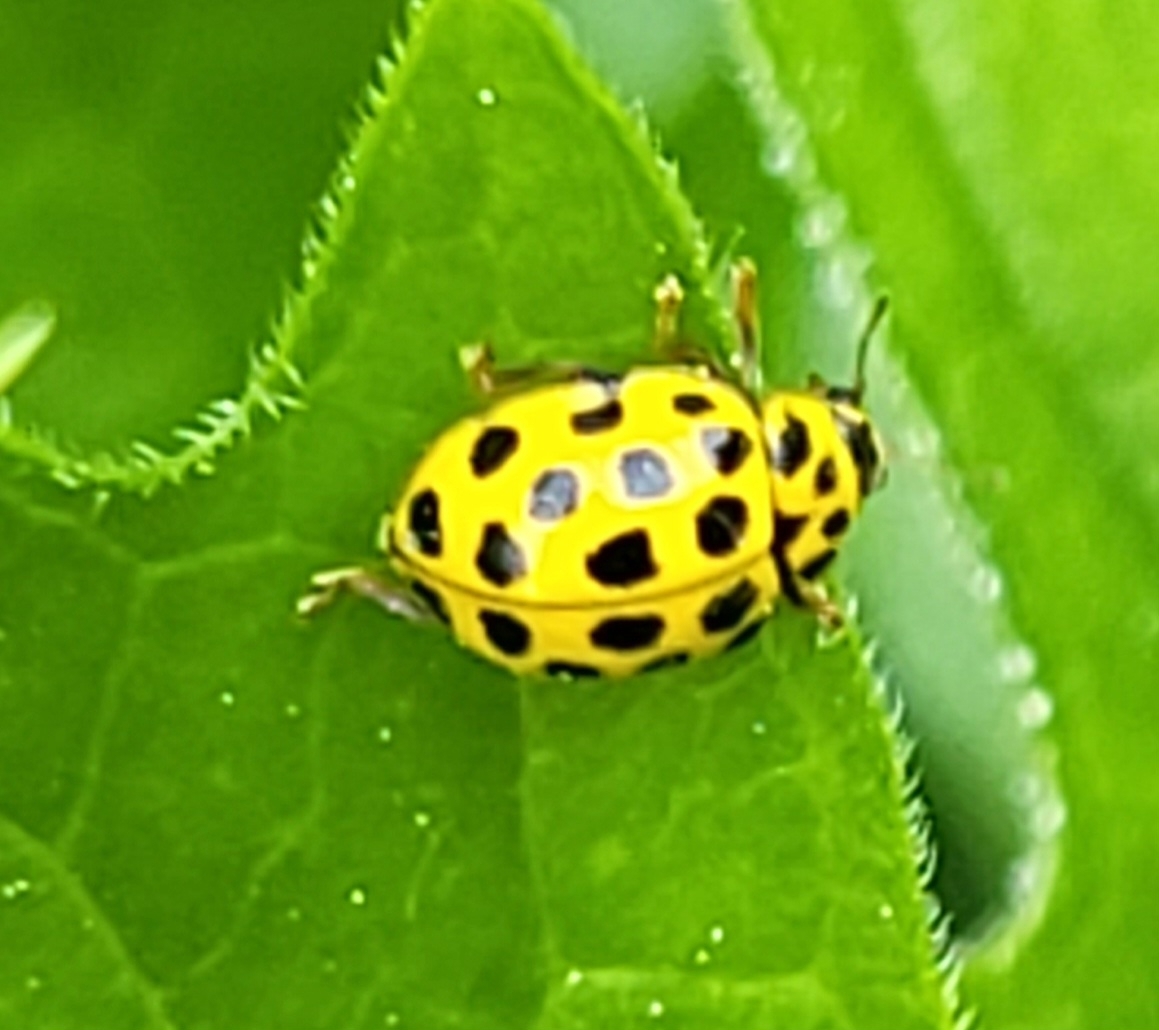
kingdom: Animalia
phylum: Arthropoda
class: Insecta
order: Coleoptera
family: Coccinellidae
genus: Psyllobora
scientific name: Psyllobora vigintiduopunctata
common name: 22-spot ladybird
